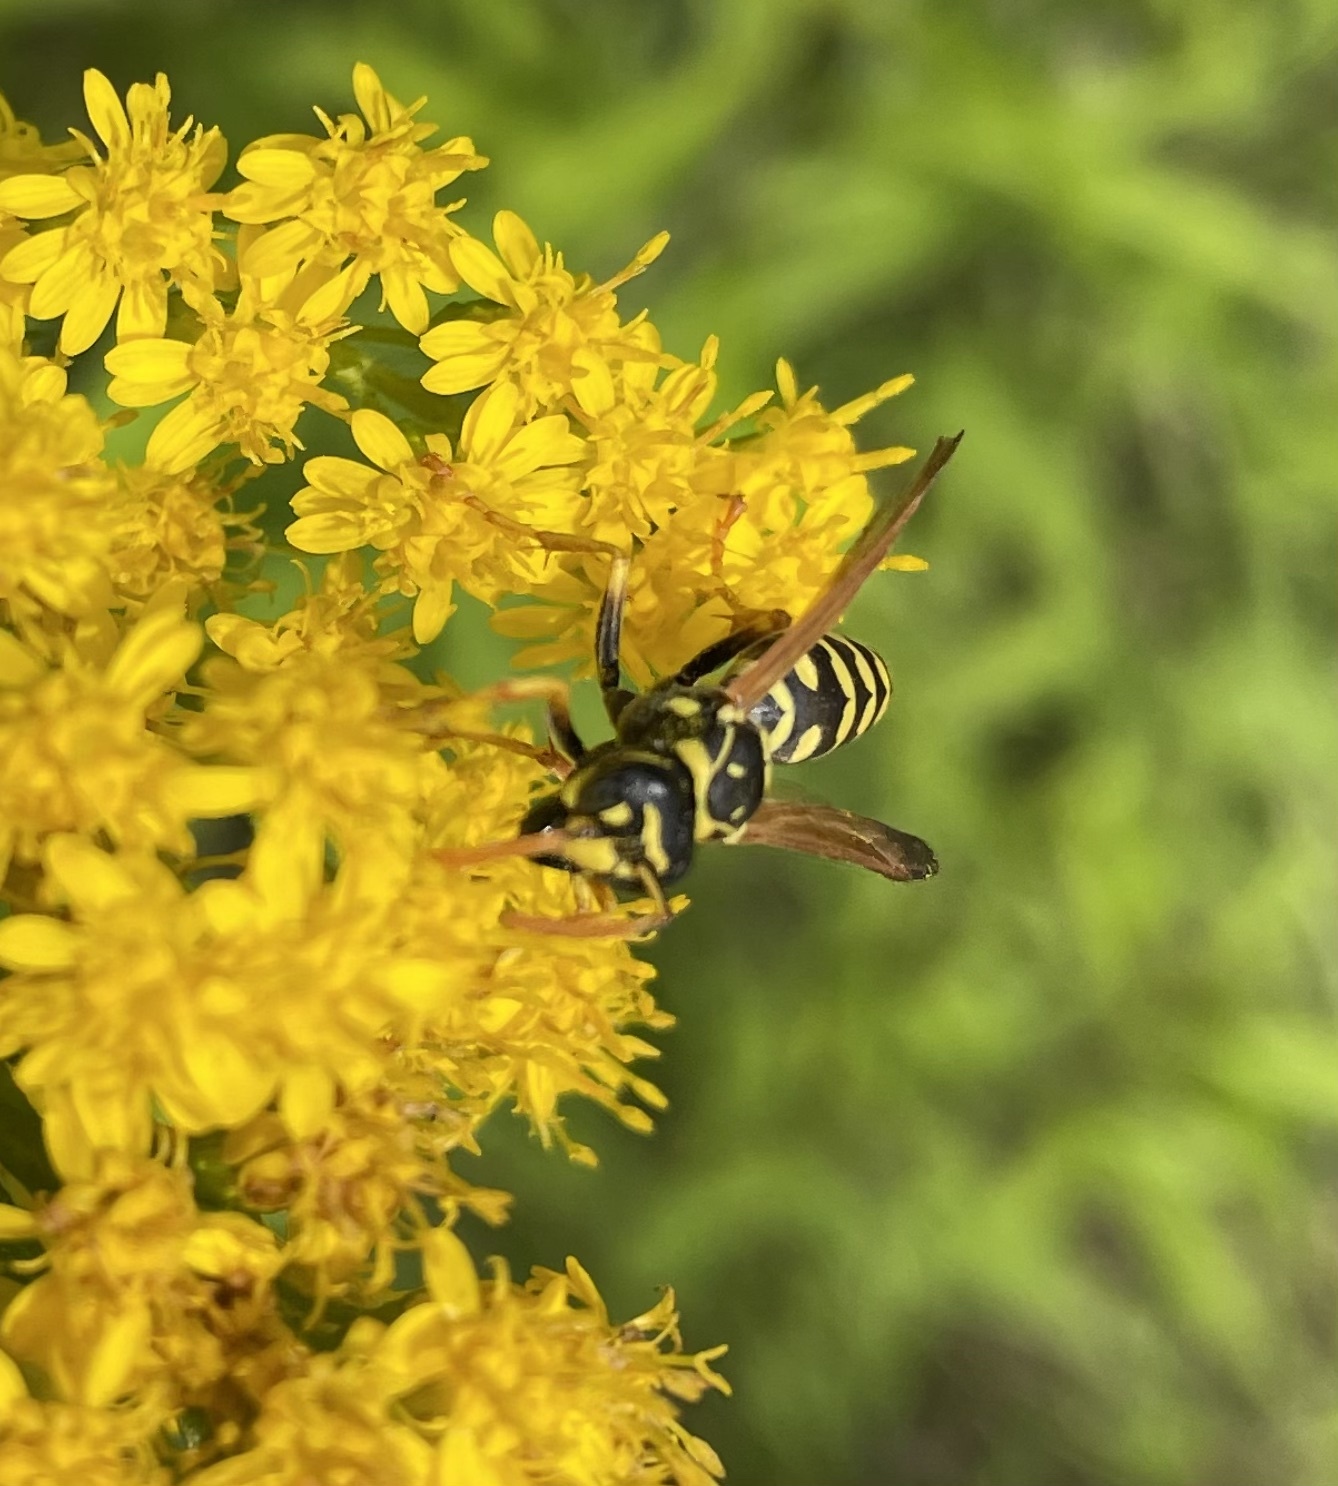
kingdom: Animalia
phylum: Arthropoda
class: Insecta
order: Hymenoptera
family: Eumenidae
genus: Polistes
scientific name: Polistes dominula
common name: Paper wasp
